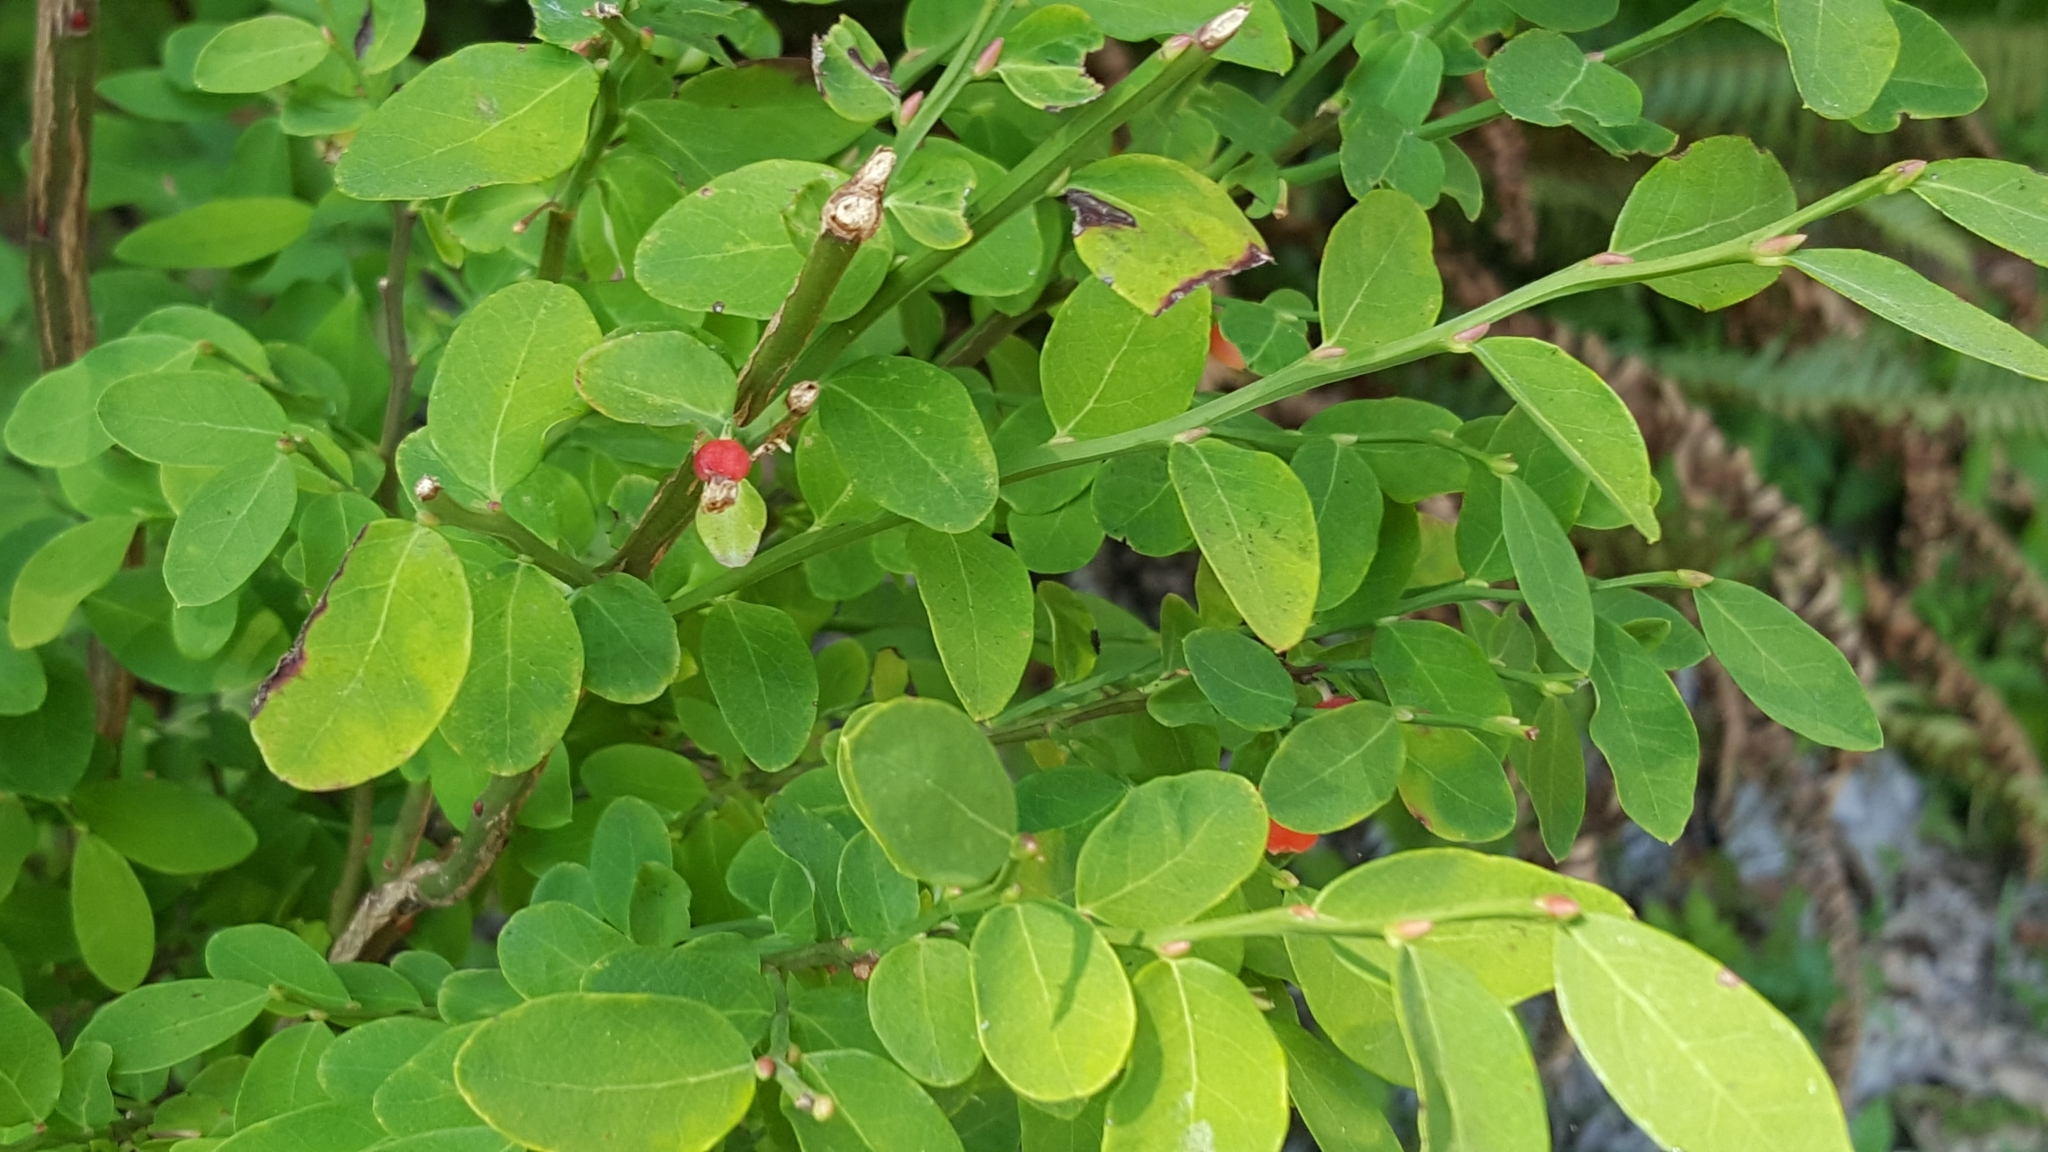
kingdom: Plantae
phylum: Tracheophyta
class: Magnoliopsida
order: Ericales
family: Ericaceae
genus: Vaccinium
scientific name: Vaccinium parvifolium
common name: Red-huckleberry
